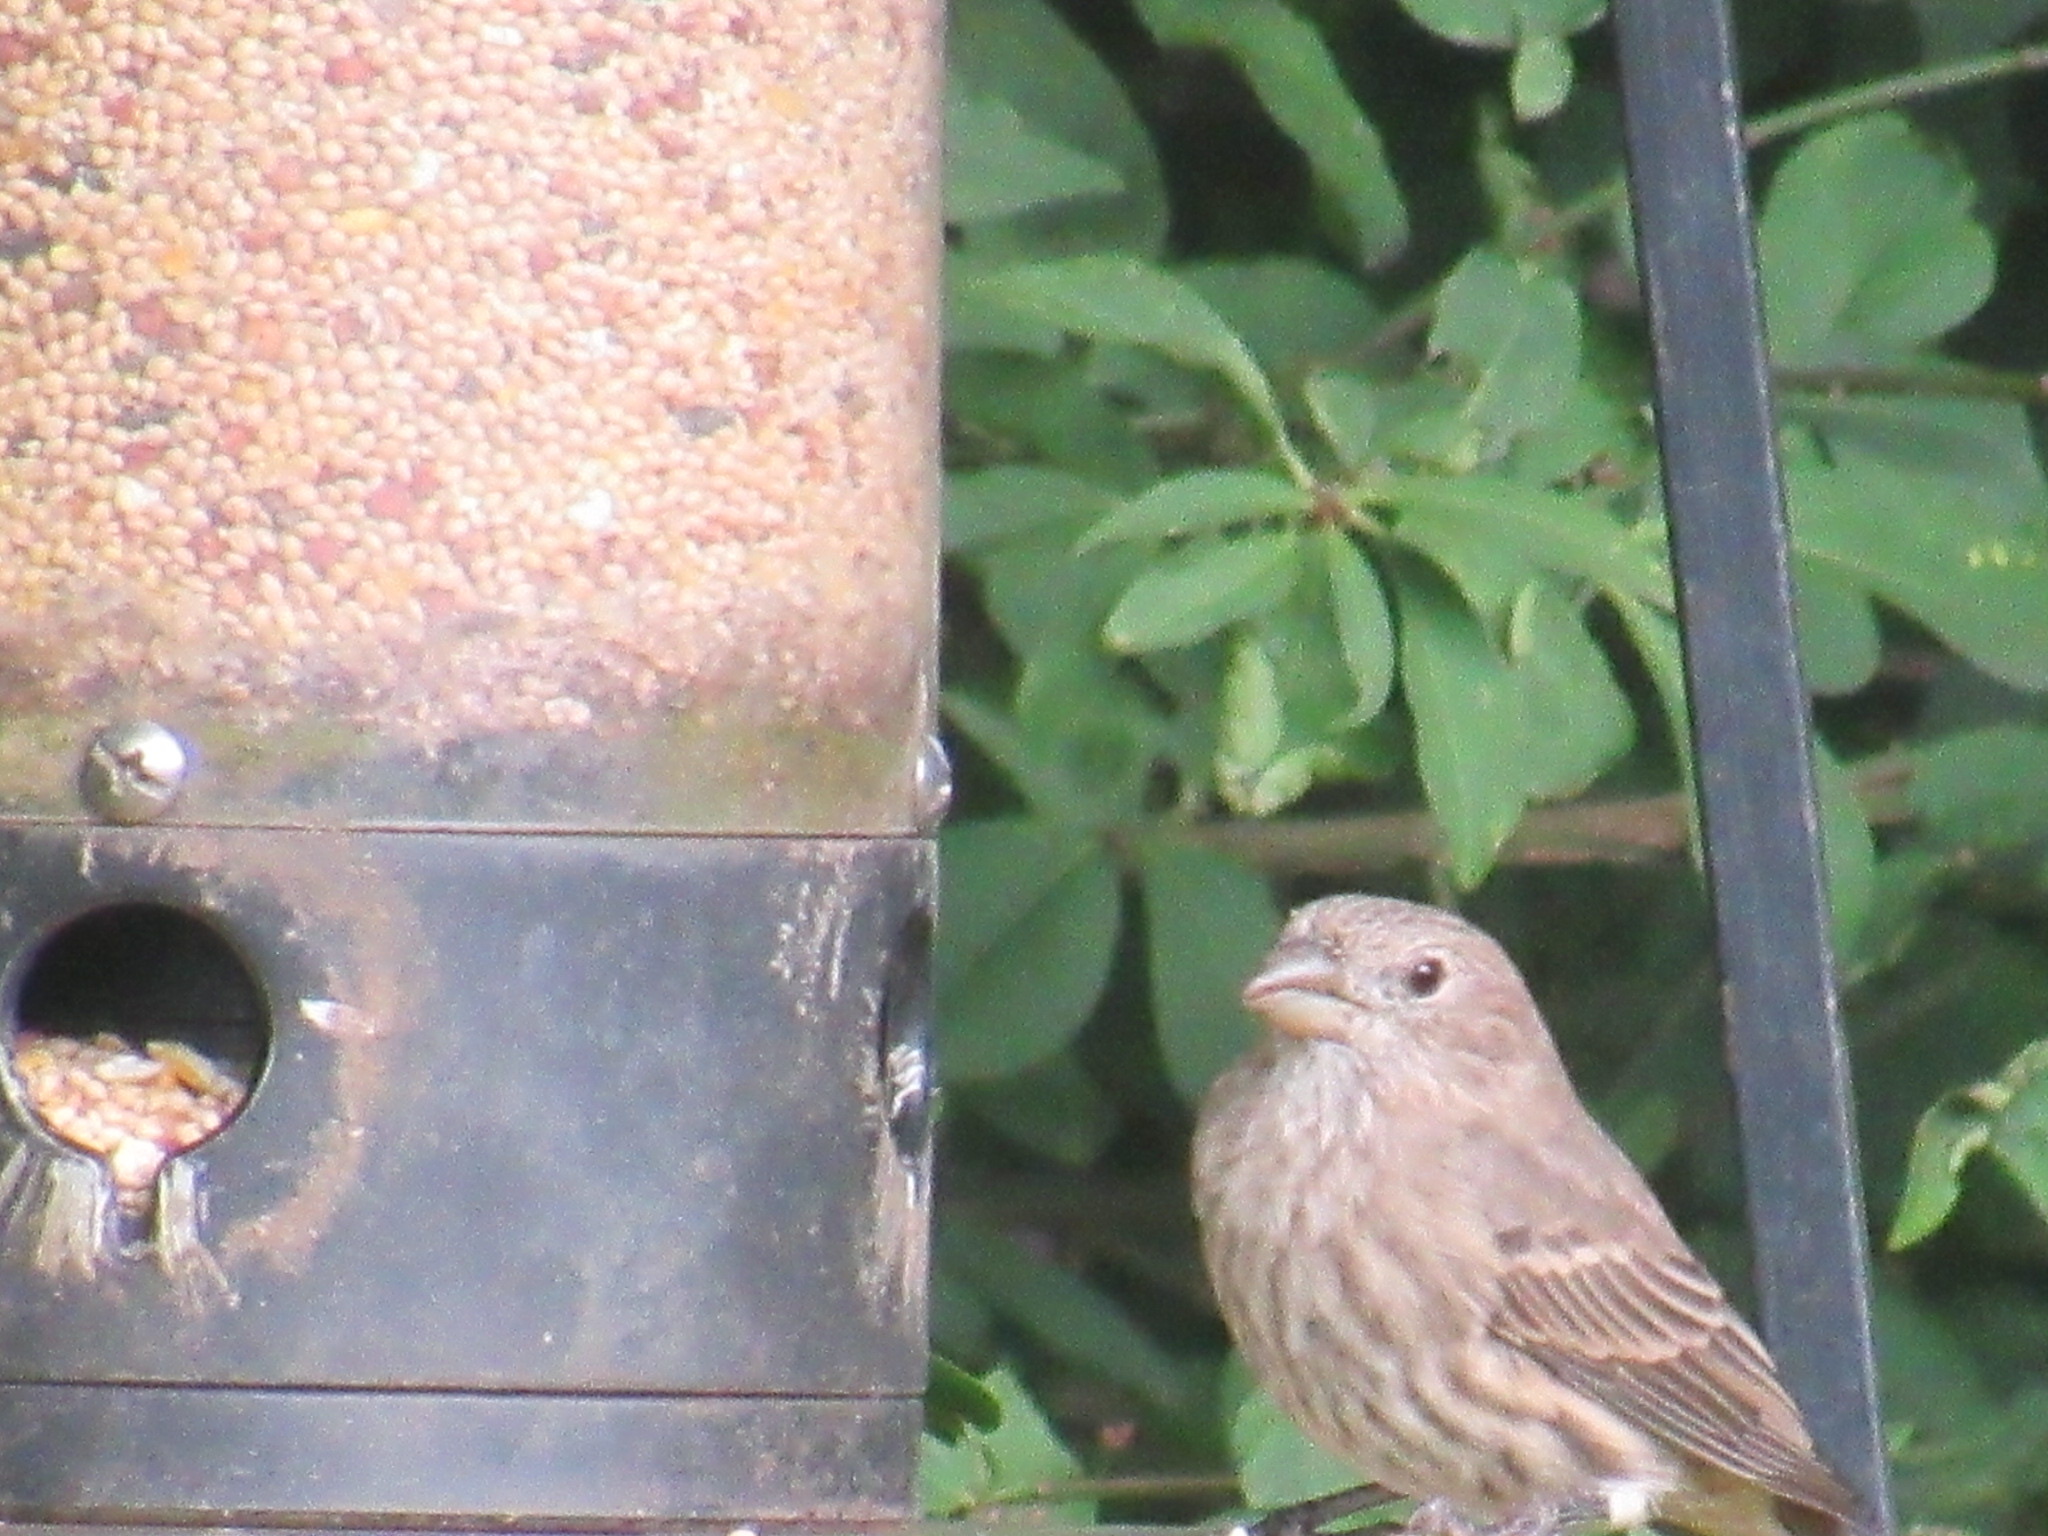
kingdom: Animalia
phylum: Chordata
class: Aves
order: Passeriformes
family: Fringillidae
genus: Haemorhous
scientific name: Haemorhous mexicanus
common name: House finch
